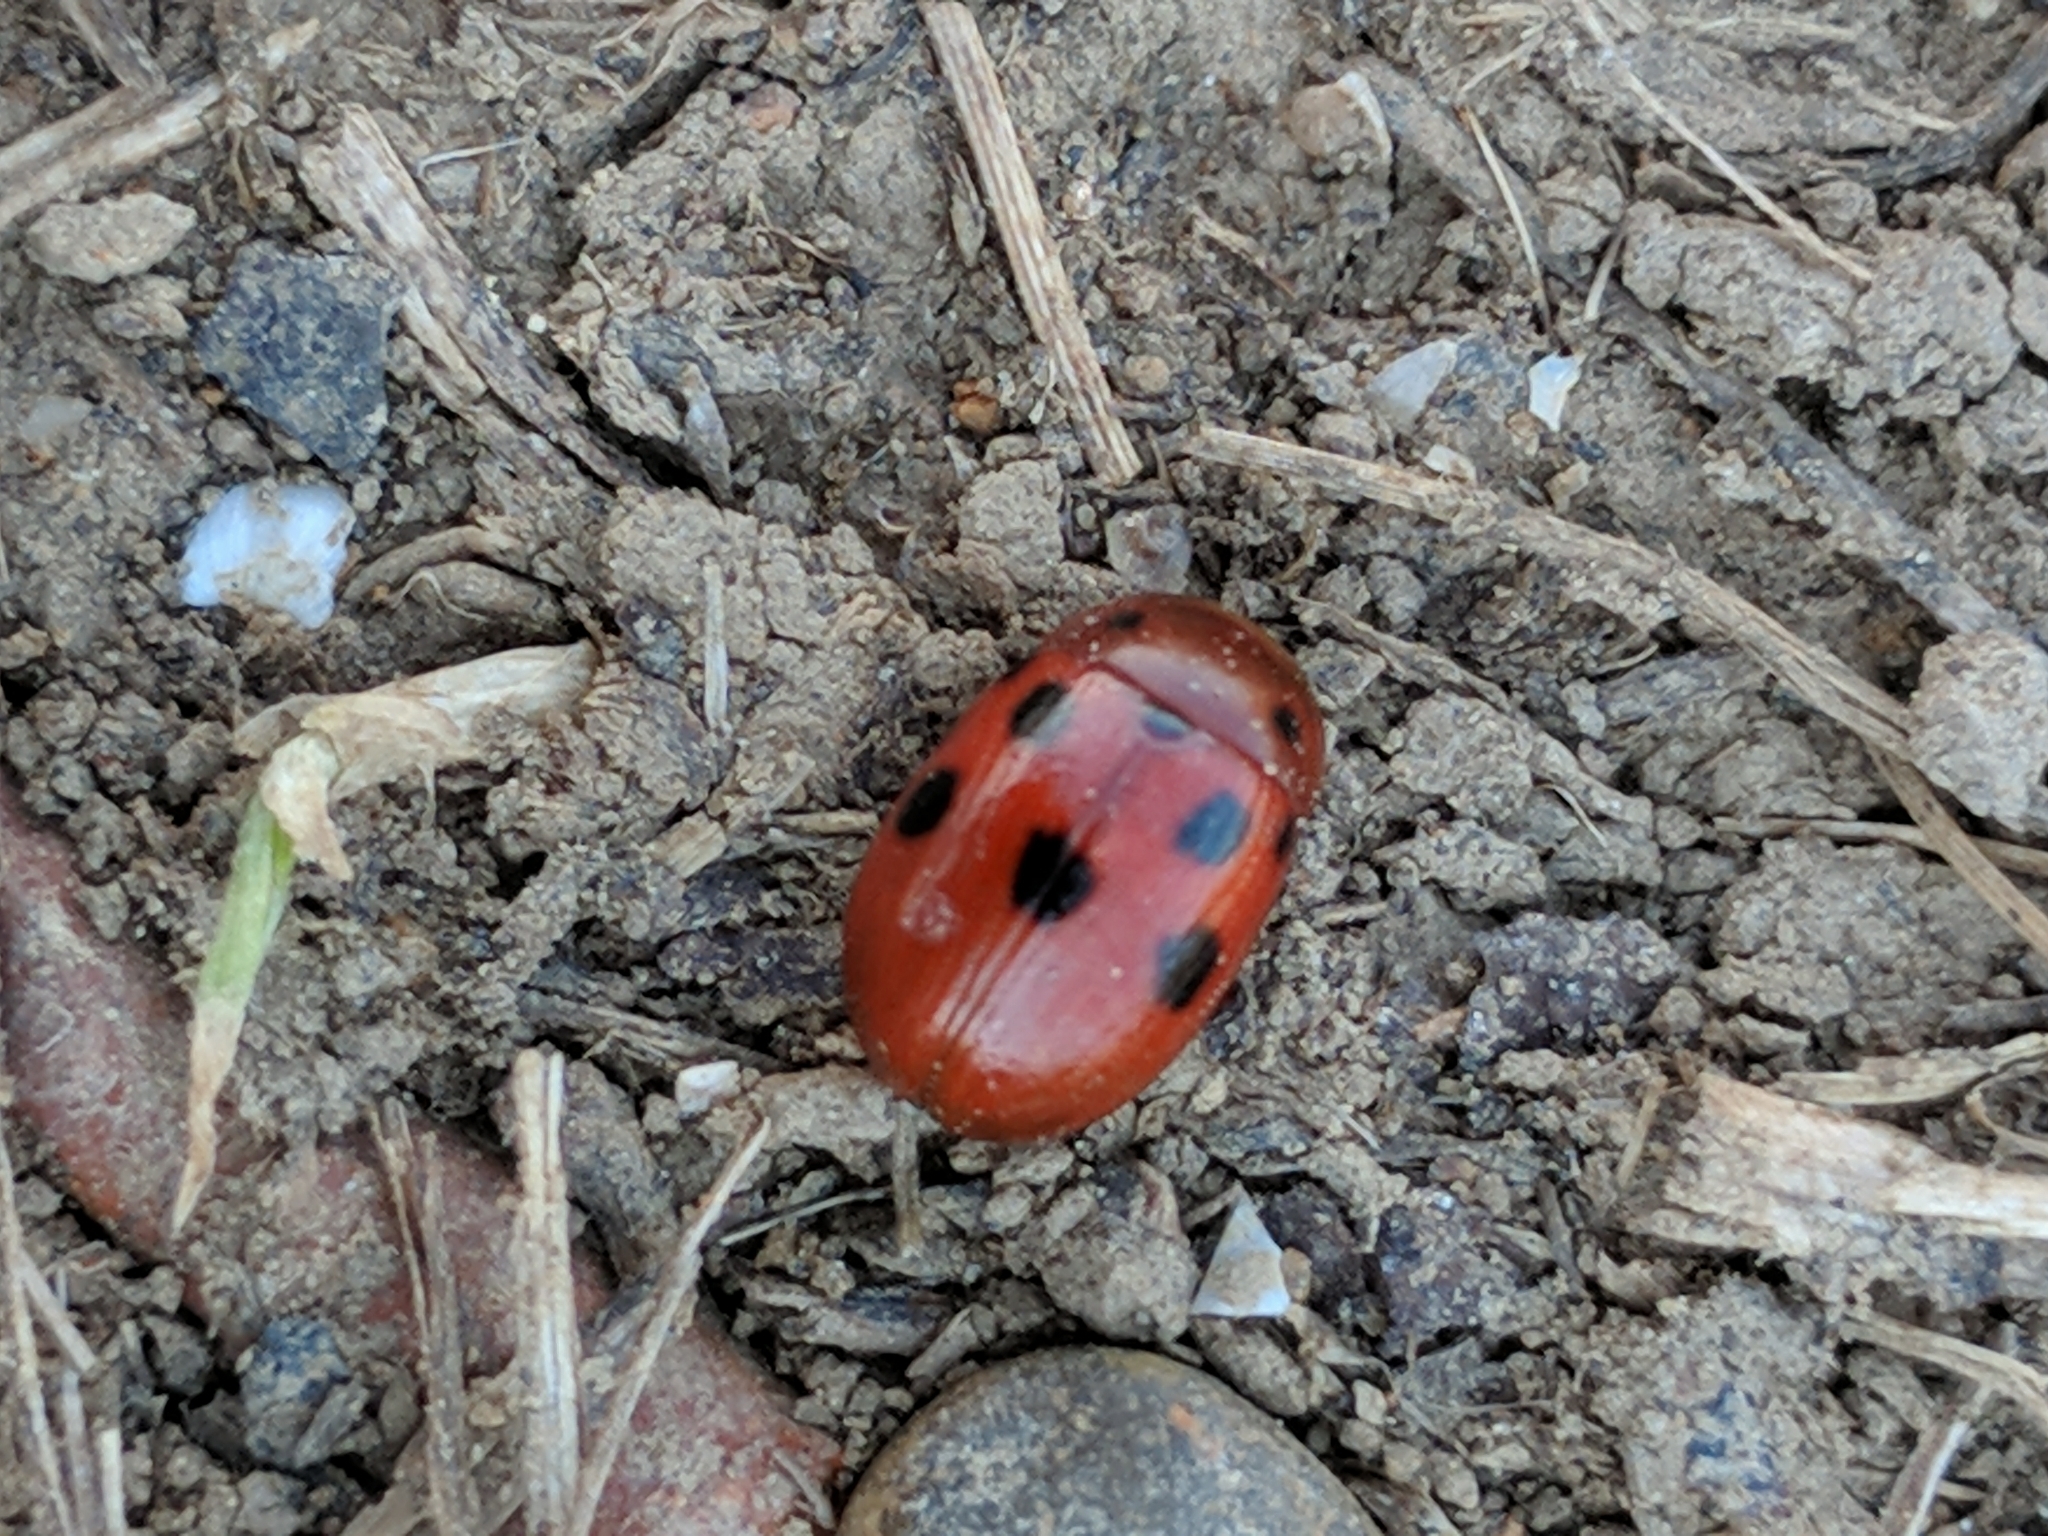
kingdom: Animalia
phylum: Arthropoda
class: Insecta
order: Coleoptera
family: Chrysomelidae
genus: Gonioctena
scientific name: Gonioctena fornicata
